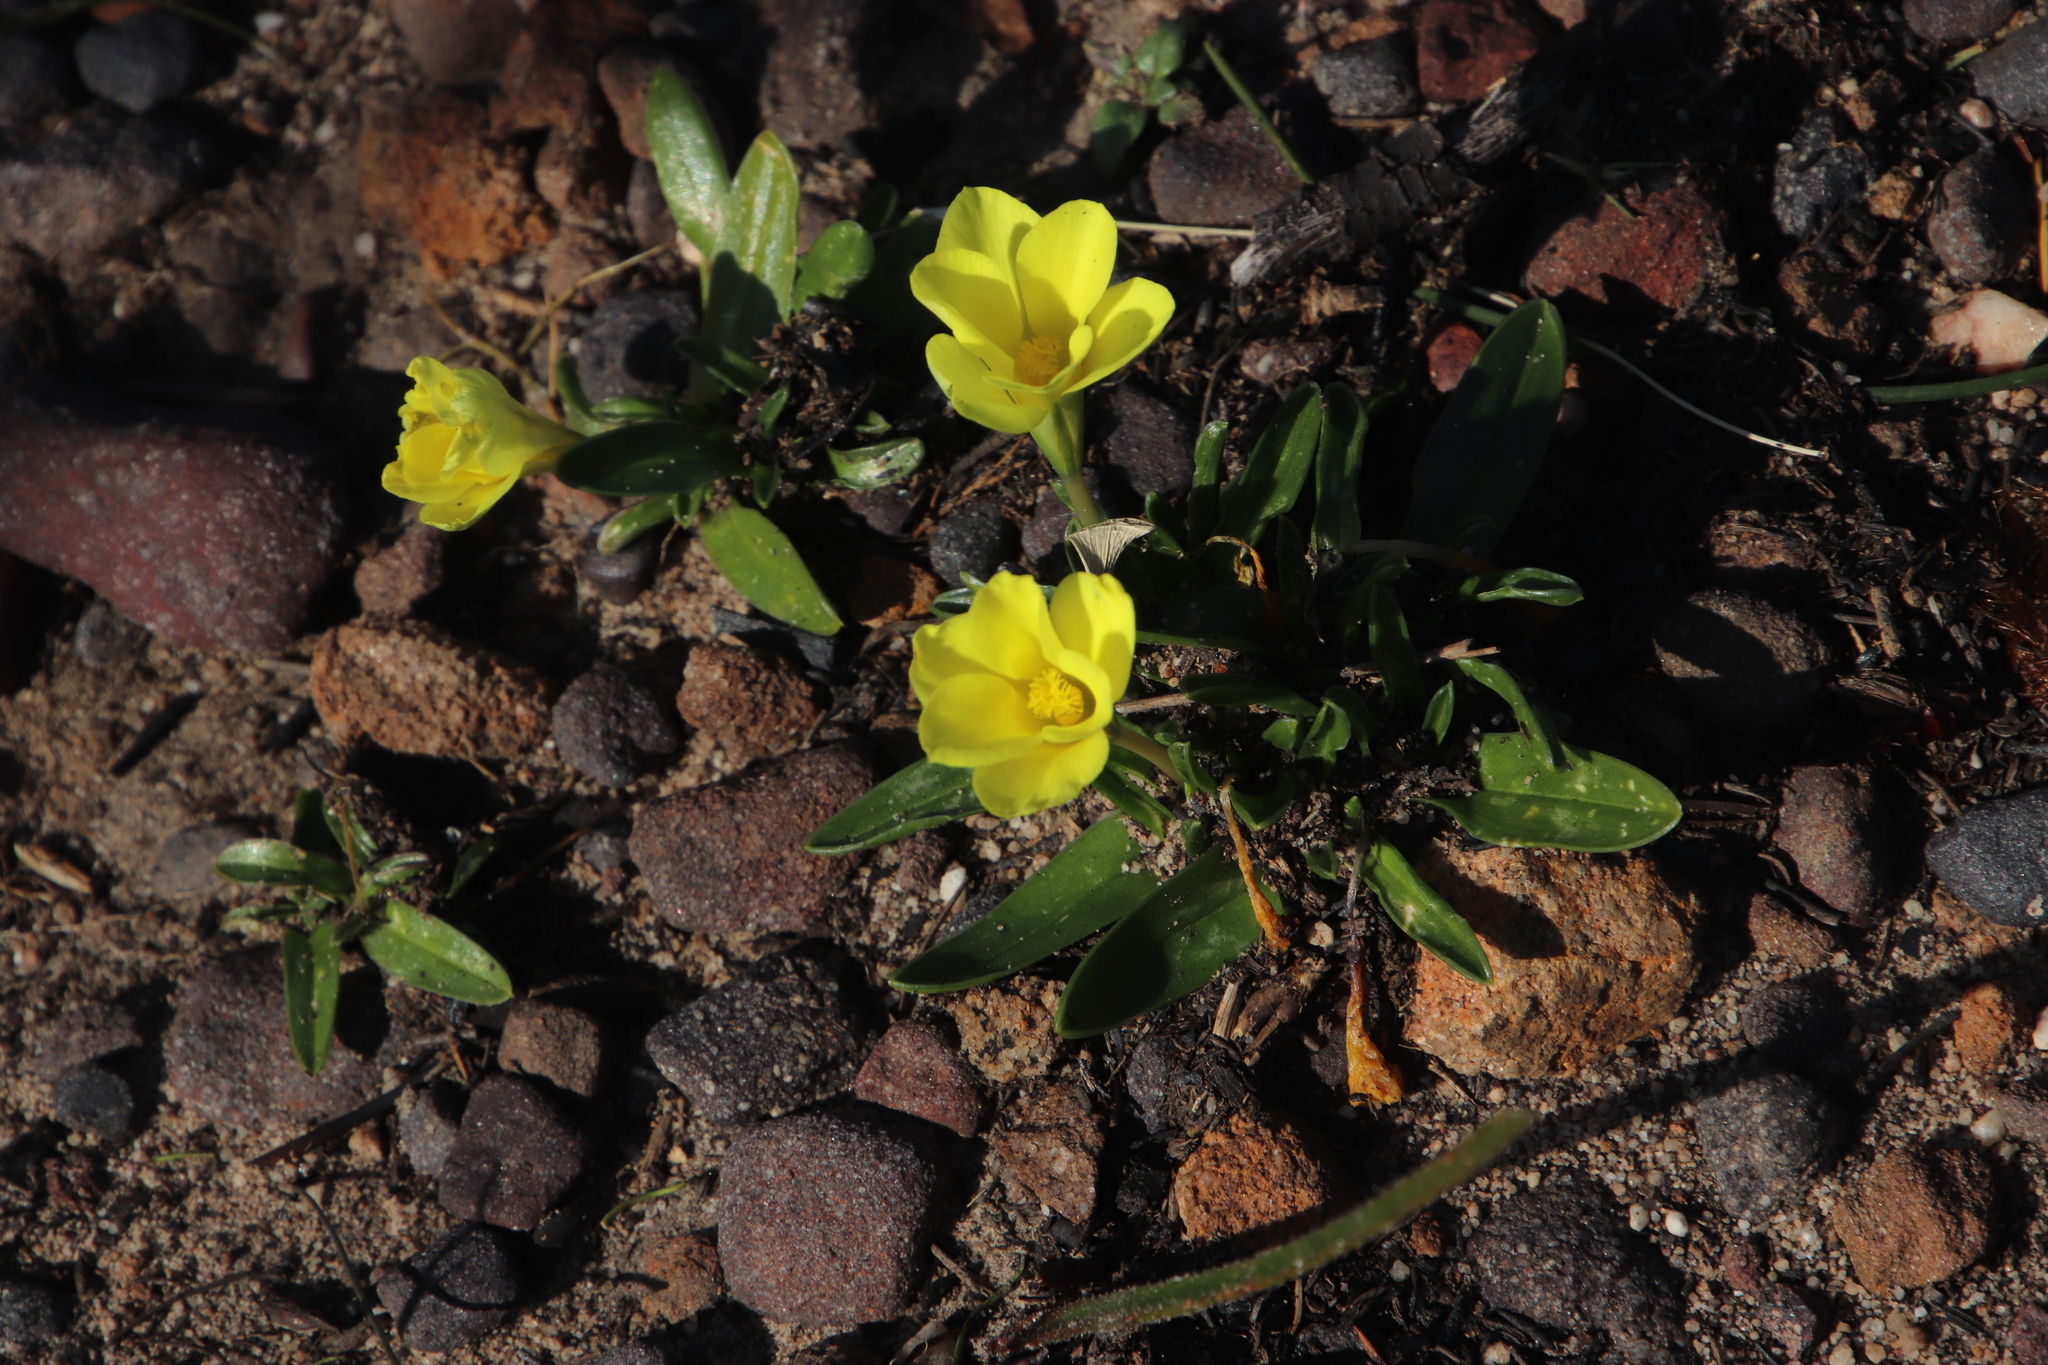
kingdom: Plantae
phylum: Tracheophyta
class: Liliopsida
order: Asparagales
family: Iridaceae
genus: Moraea
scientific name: Moraea galaxia
